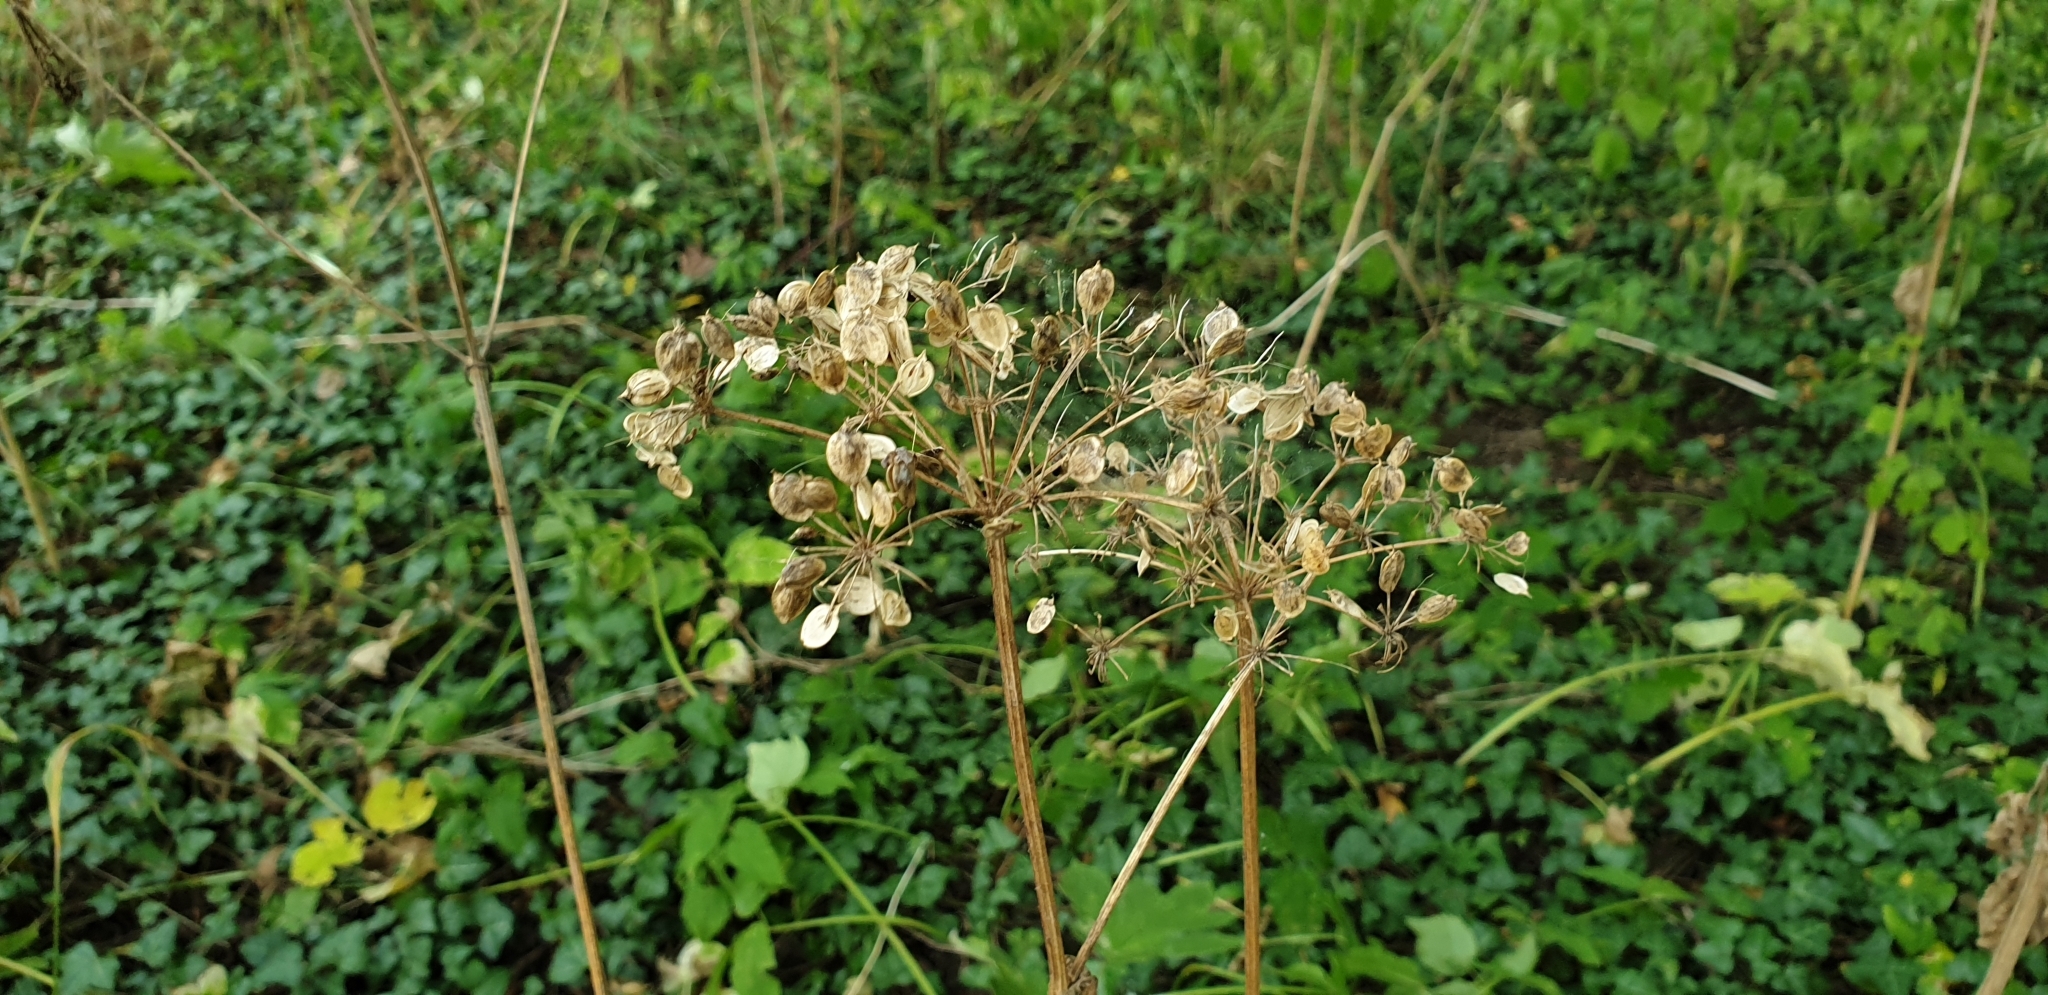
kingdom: Plantae
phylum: Tracheophyta
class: Magnoliopsida
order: Apiales
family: Apiaceae
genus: Heracleum
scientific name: Heracleum sphondylium
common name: Hogweed
